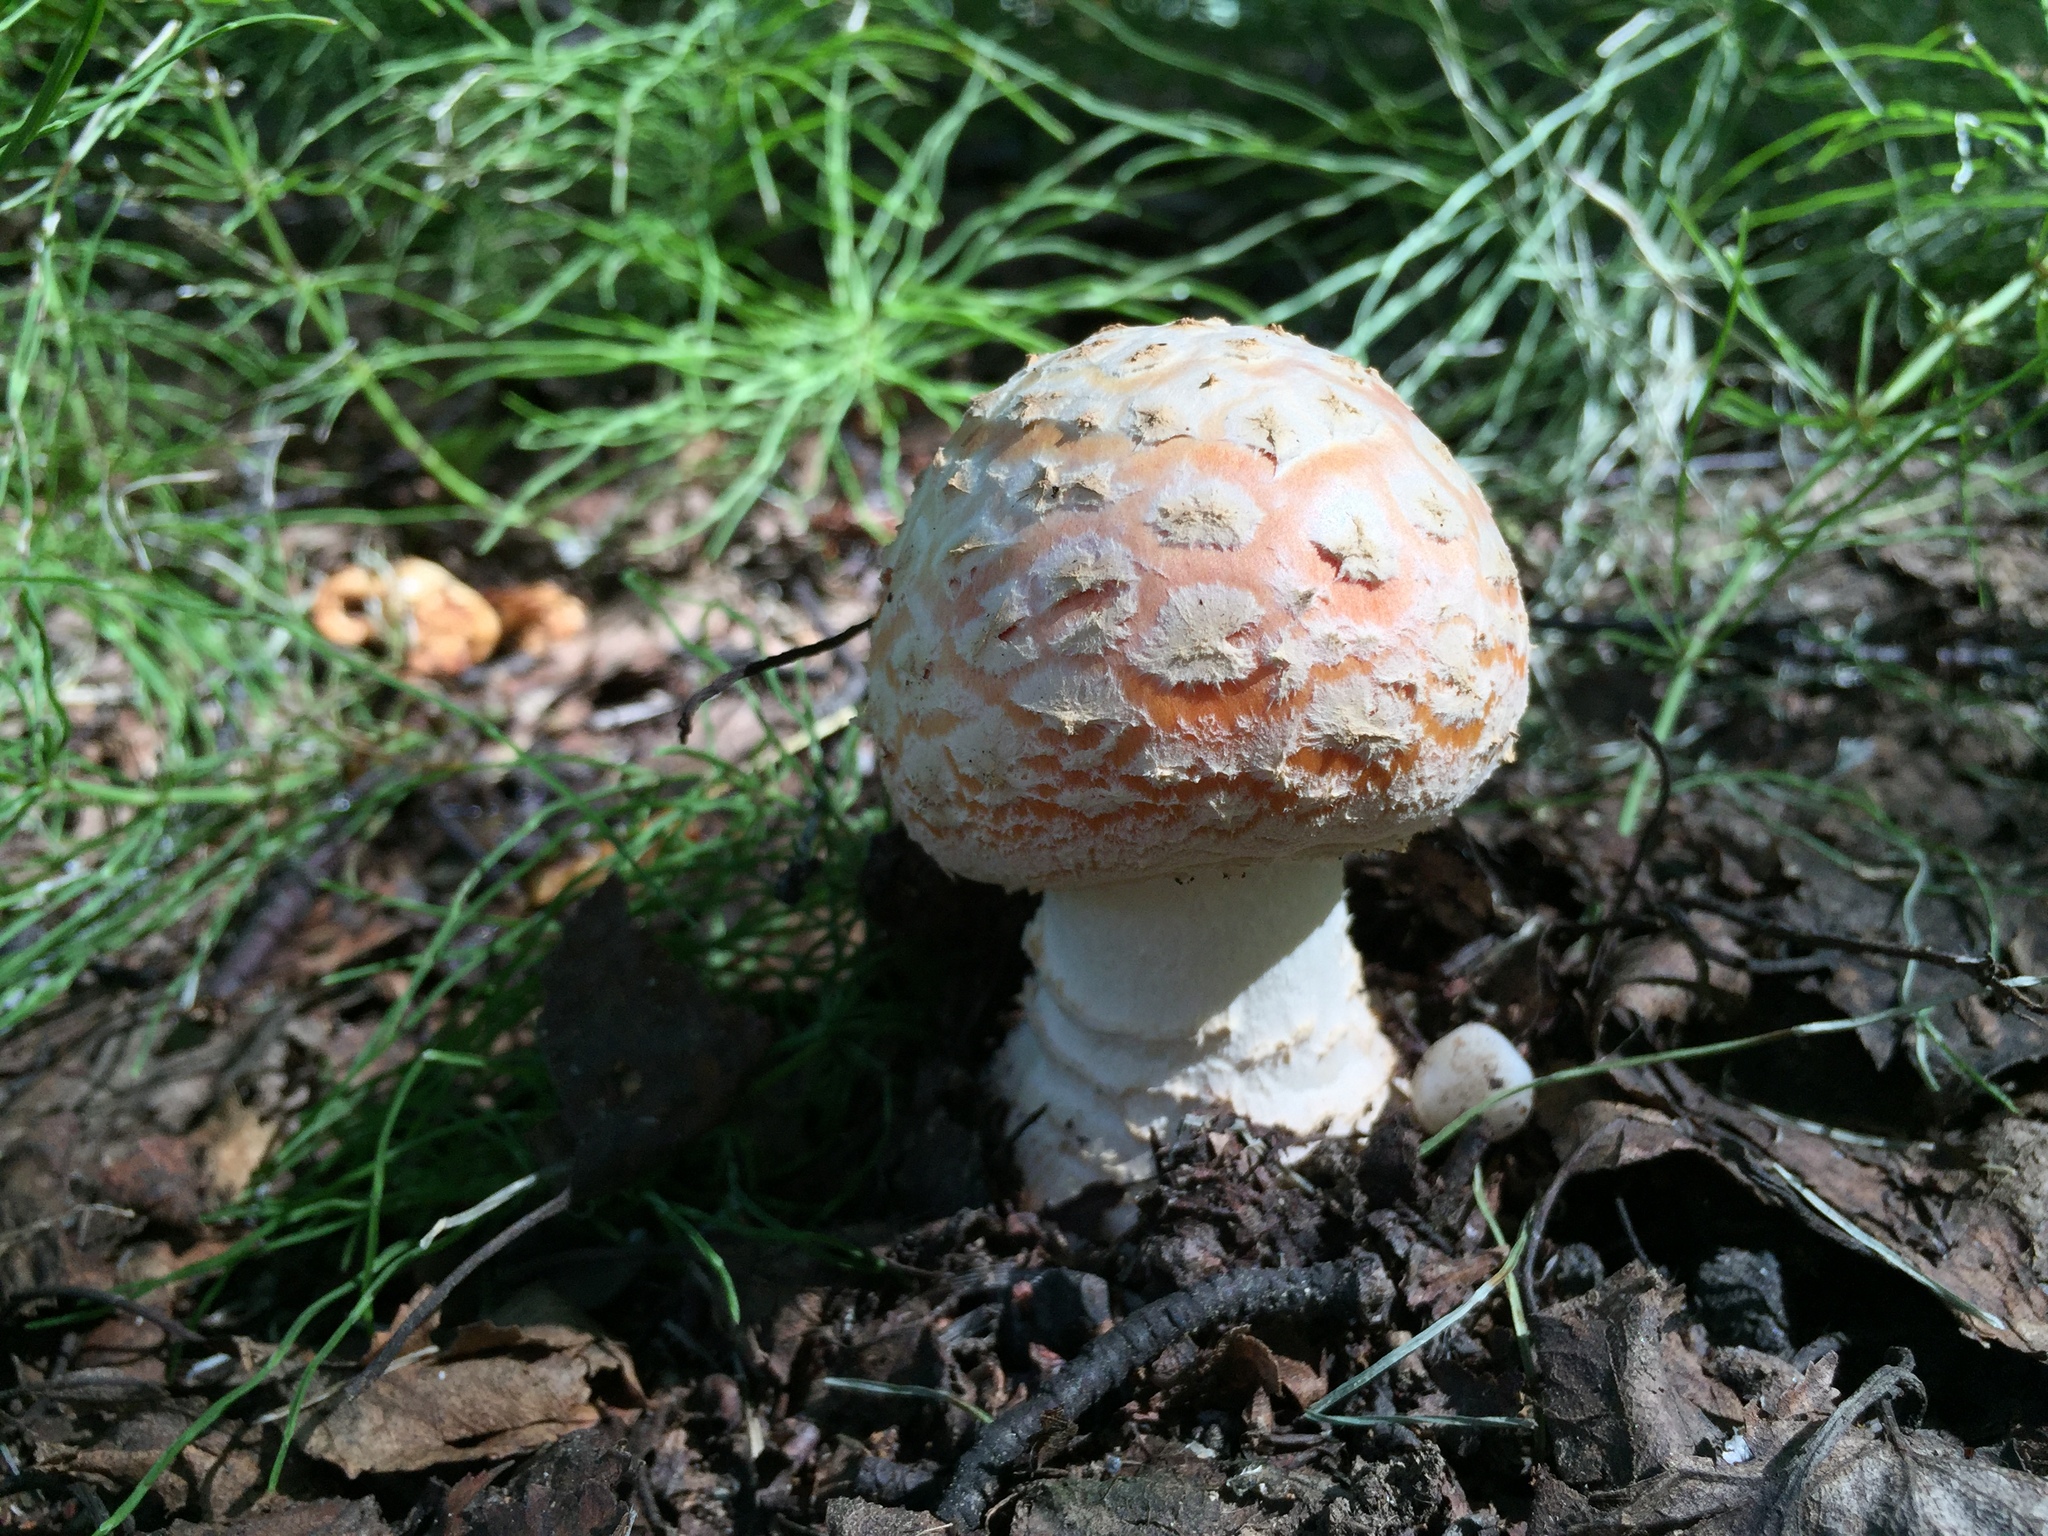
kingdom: Fungi
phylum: Basidiomycota
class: Agaricomycetes
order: Agaricales
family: Amanitaceae
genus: Amanita
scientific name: Amanita muscaria
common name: Fly agaric
